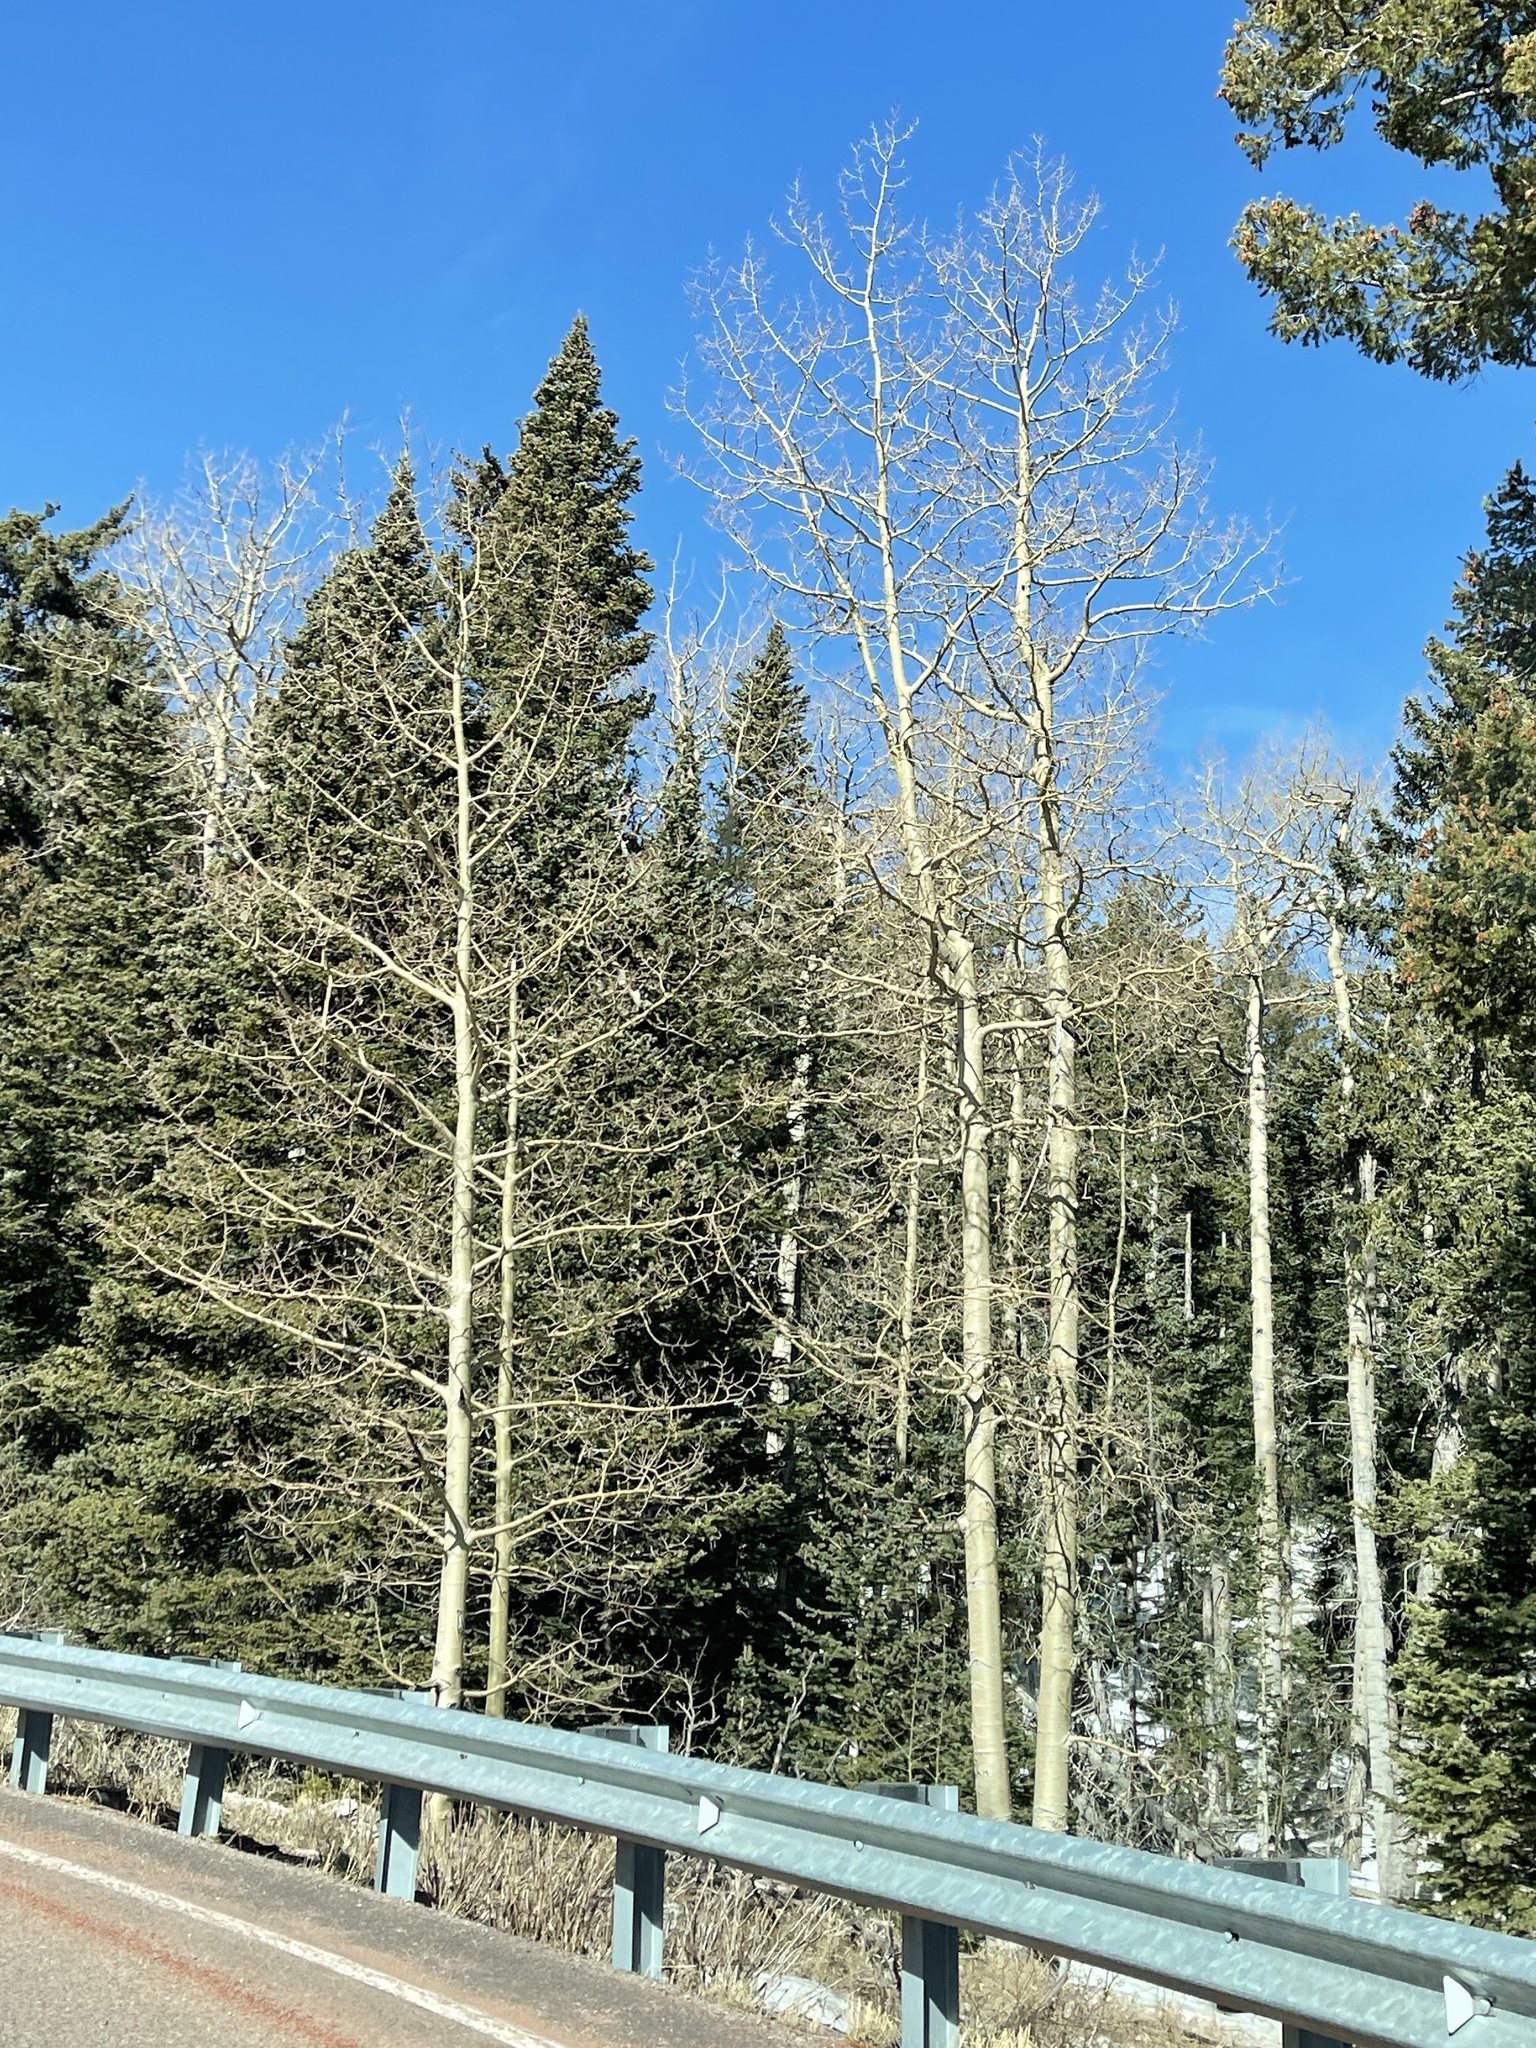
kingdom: Plantae
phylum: Tracheophyta
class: Magnoliopsida
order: Malpighiales
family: Salicaceae
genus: Populus
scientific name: Populus tremuloides
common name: Quaking aspen
